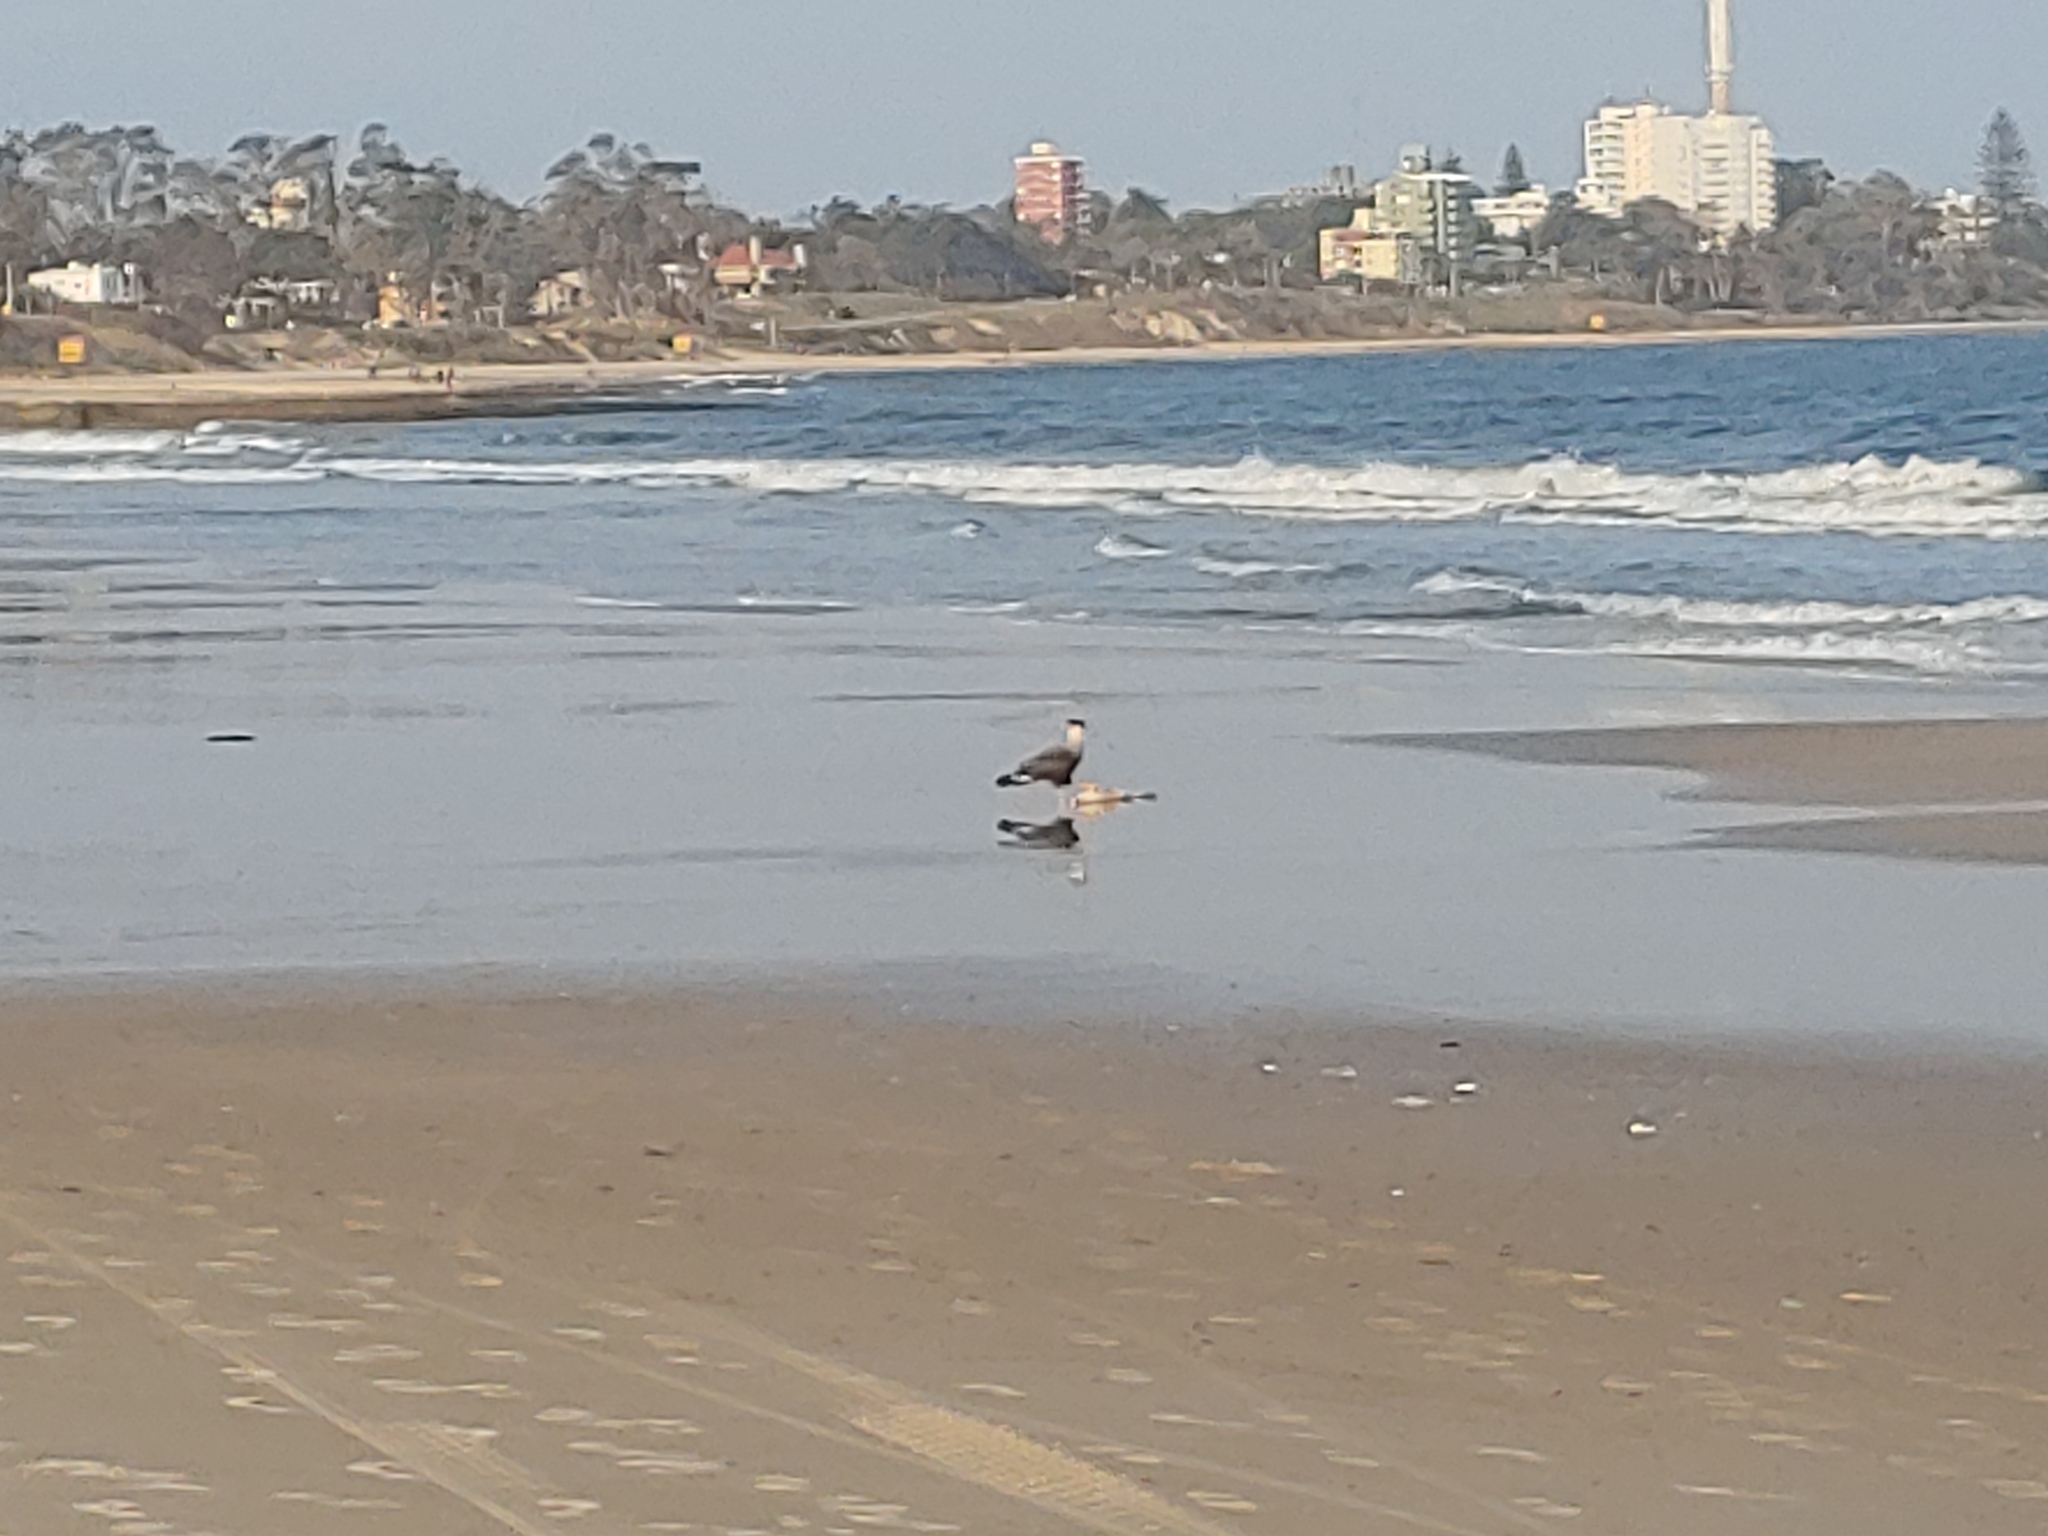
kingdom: Animalia
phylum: Chordata
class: Aves
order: Falconiformes
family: Falconidae
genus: Caracara
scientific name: Caracara plancus
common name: Southern caracara
